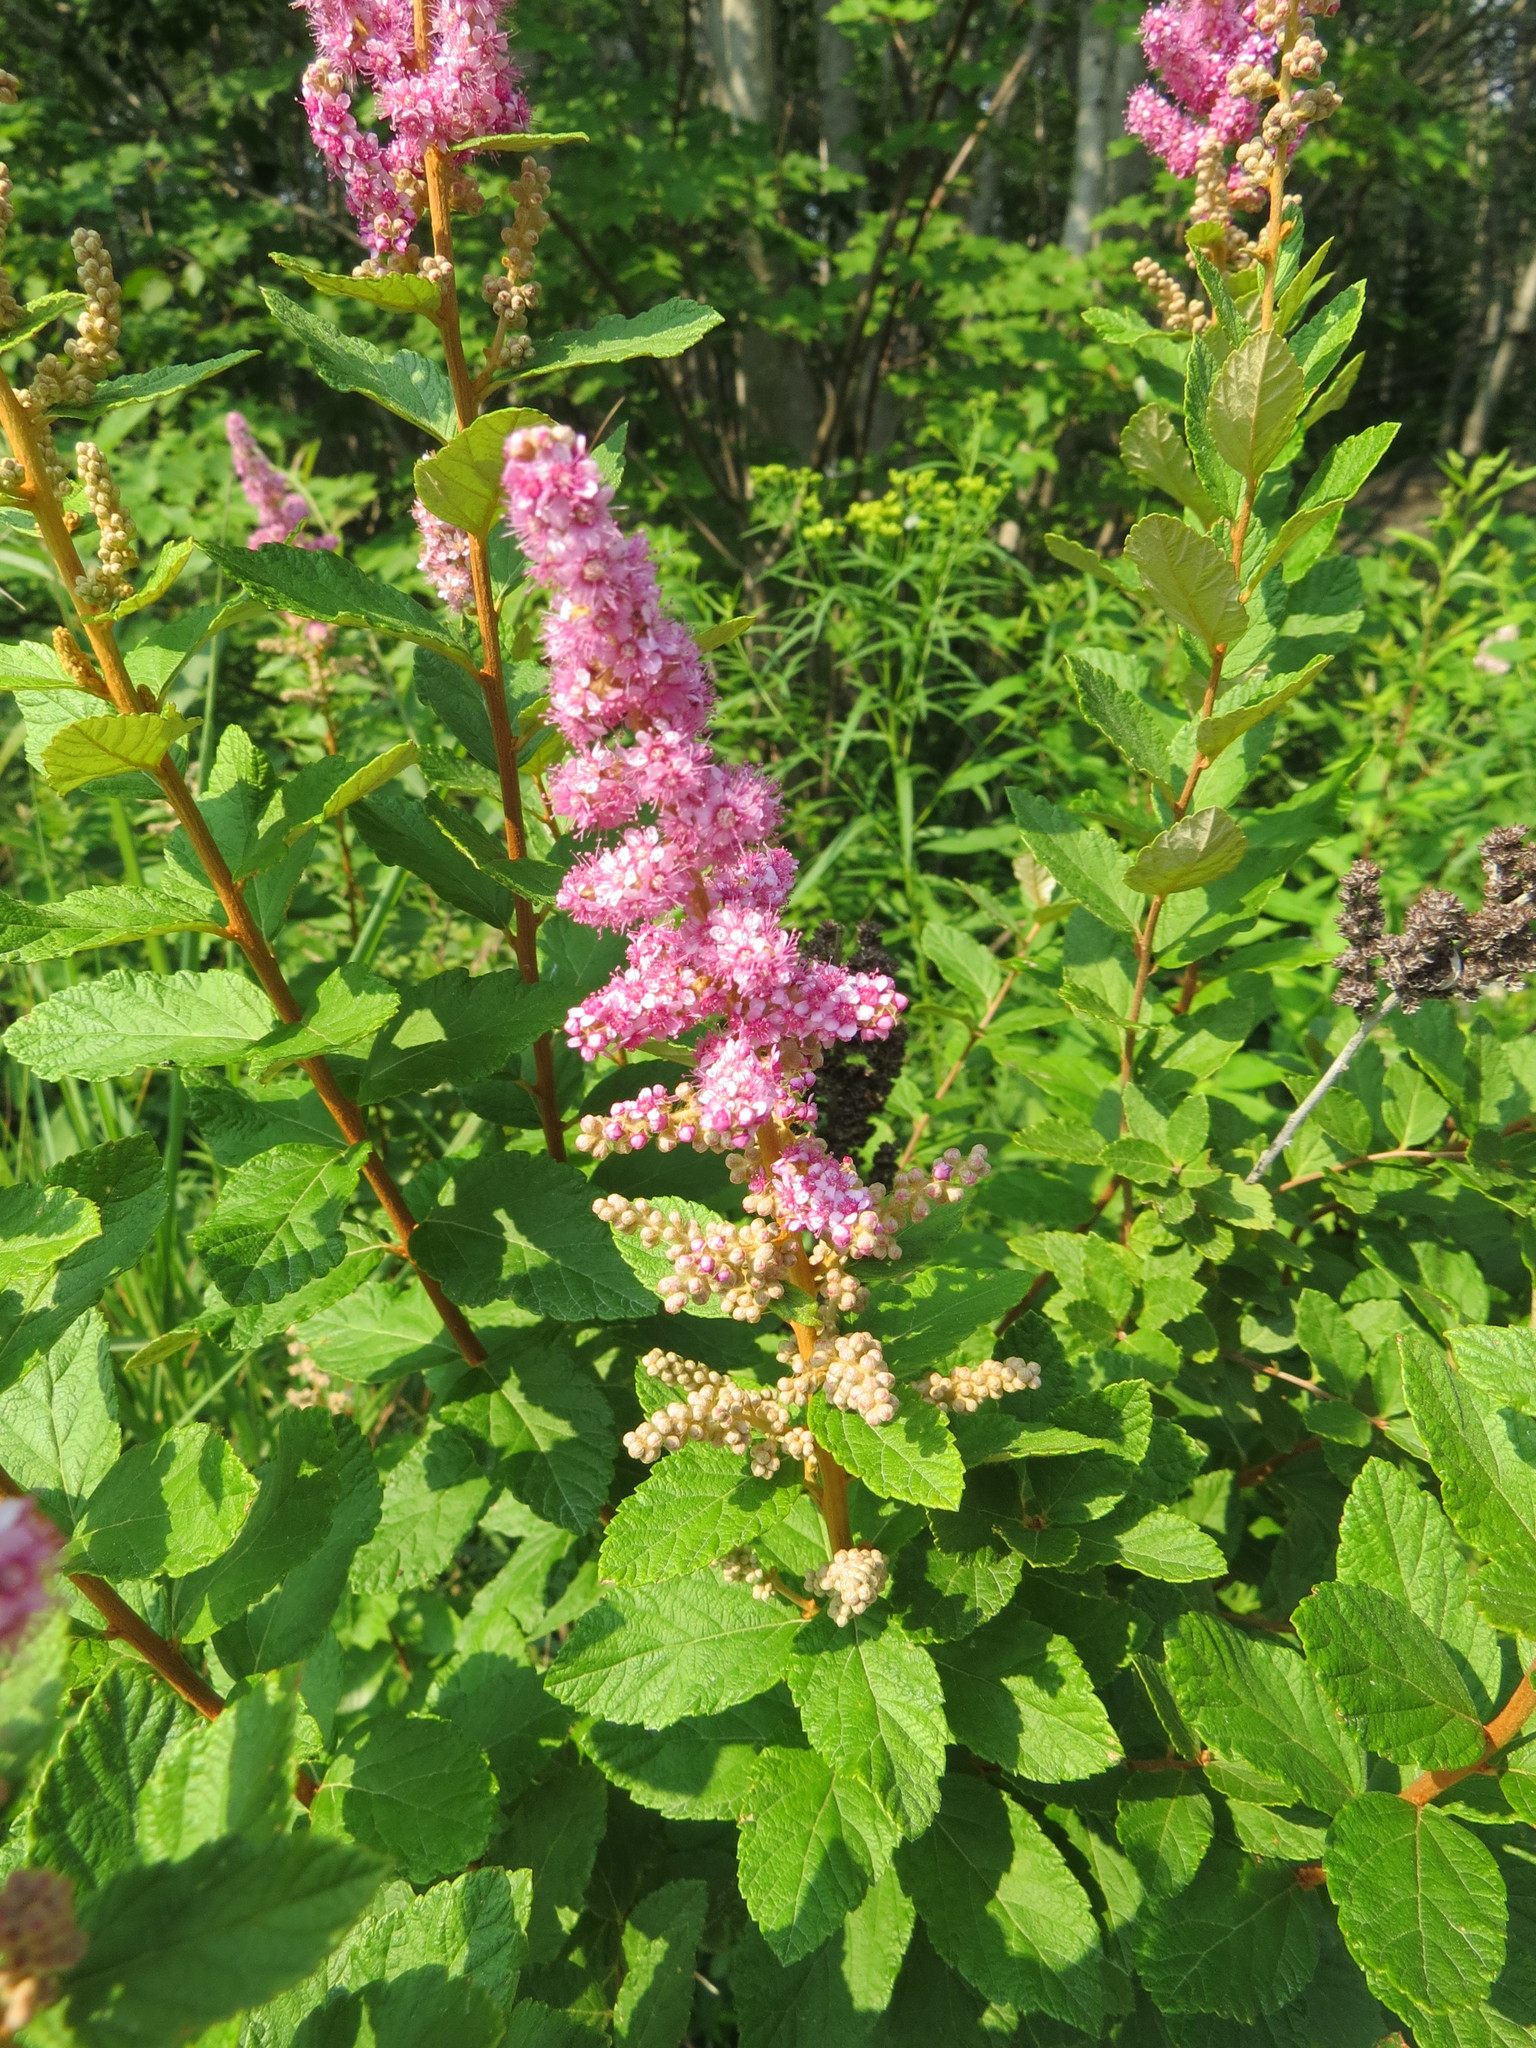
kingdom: Plantae
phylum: Tracheophyta
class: Magnoliopsida
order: Rosales
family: Rosaceae
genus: Spiraea
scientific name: Spiraea tomentosa
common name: Hardhack
